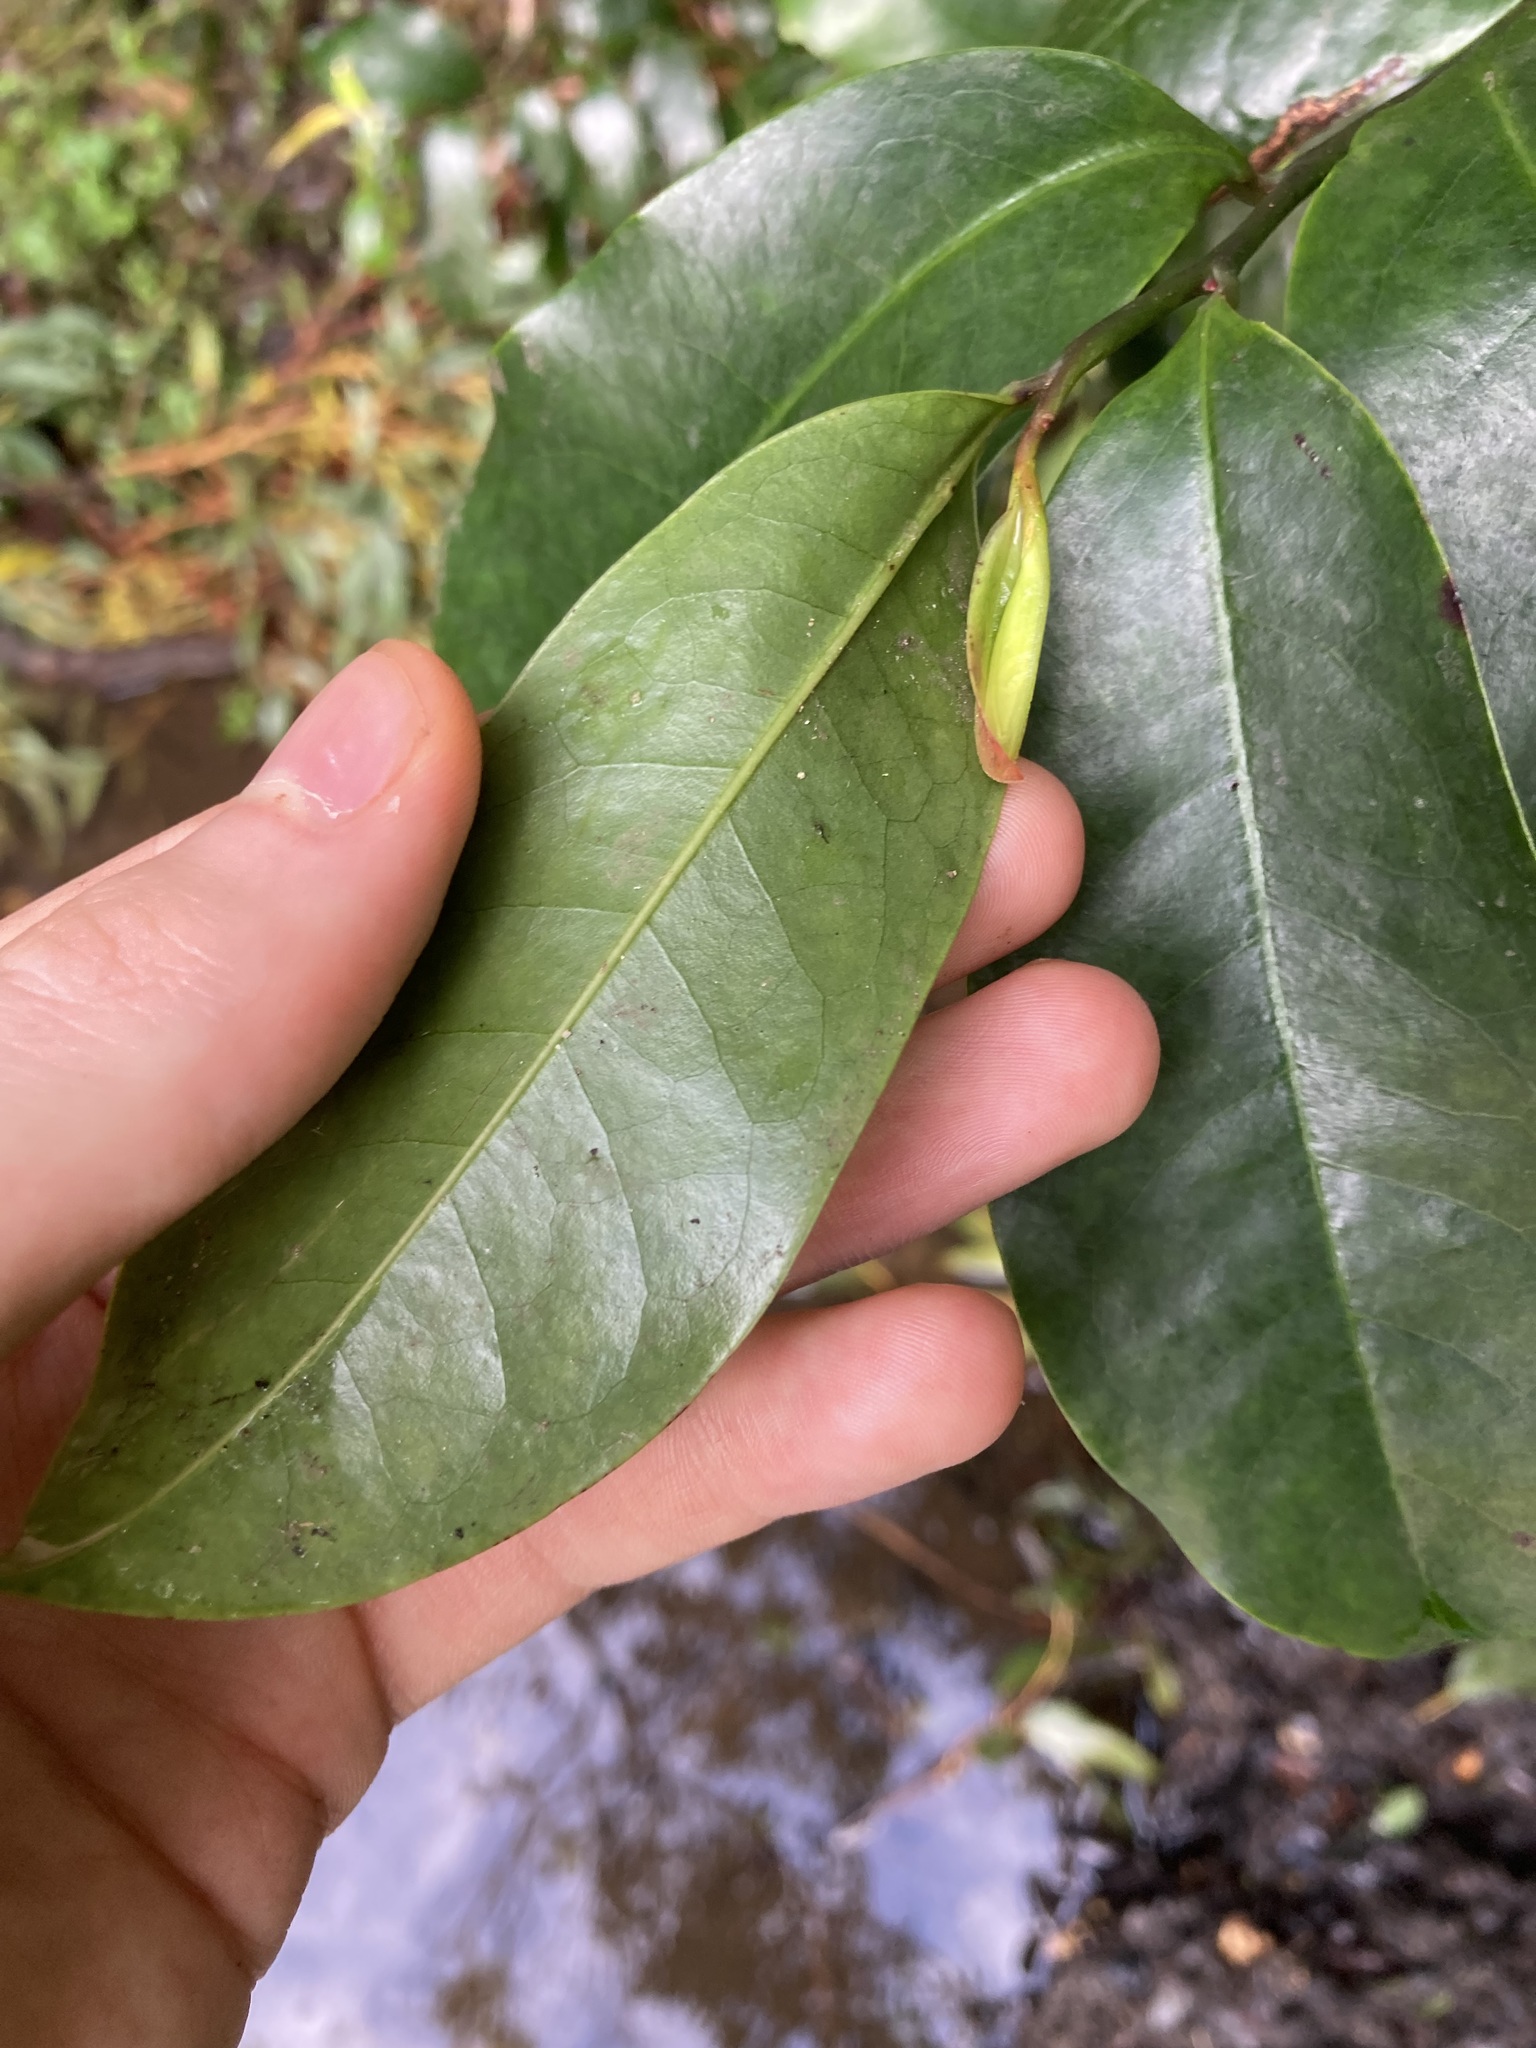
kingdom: Plantae
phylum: Tracheophyta
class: Magnoliopsida
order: Magnoliales
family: Eupomatiaceae
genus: Eupomatia
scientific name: Eupomatia laurina
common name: Bolwarra
